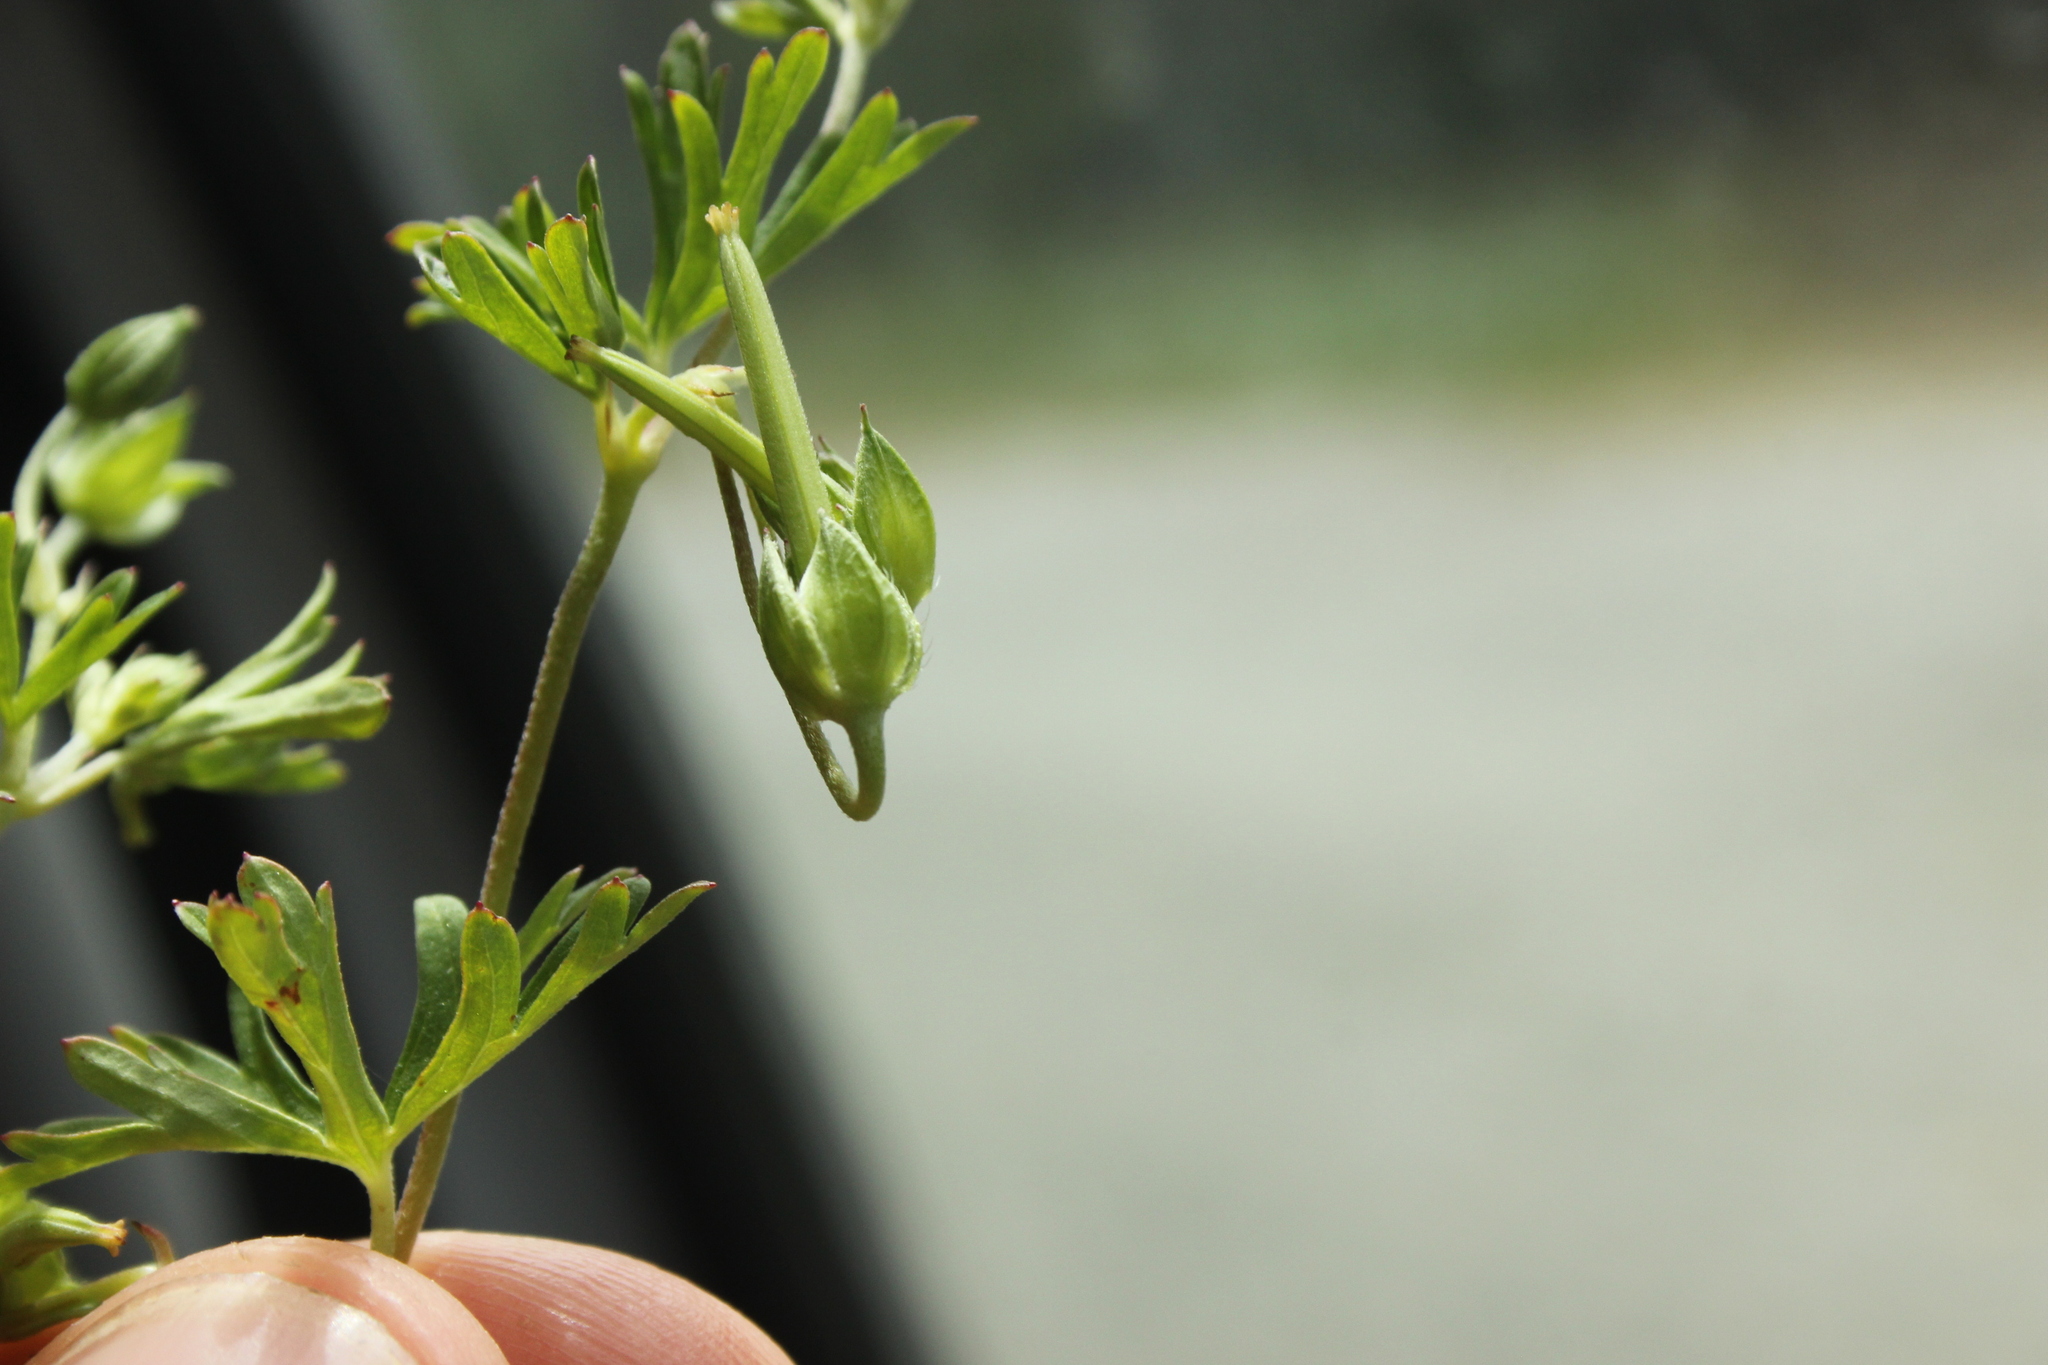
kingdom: Plantae
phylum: Tracheophyta
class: Magnoliopsida
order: Geraniales
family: Geraniaceae
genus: Geranium
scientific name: Geranium solanderi
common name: Solander's geranium
